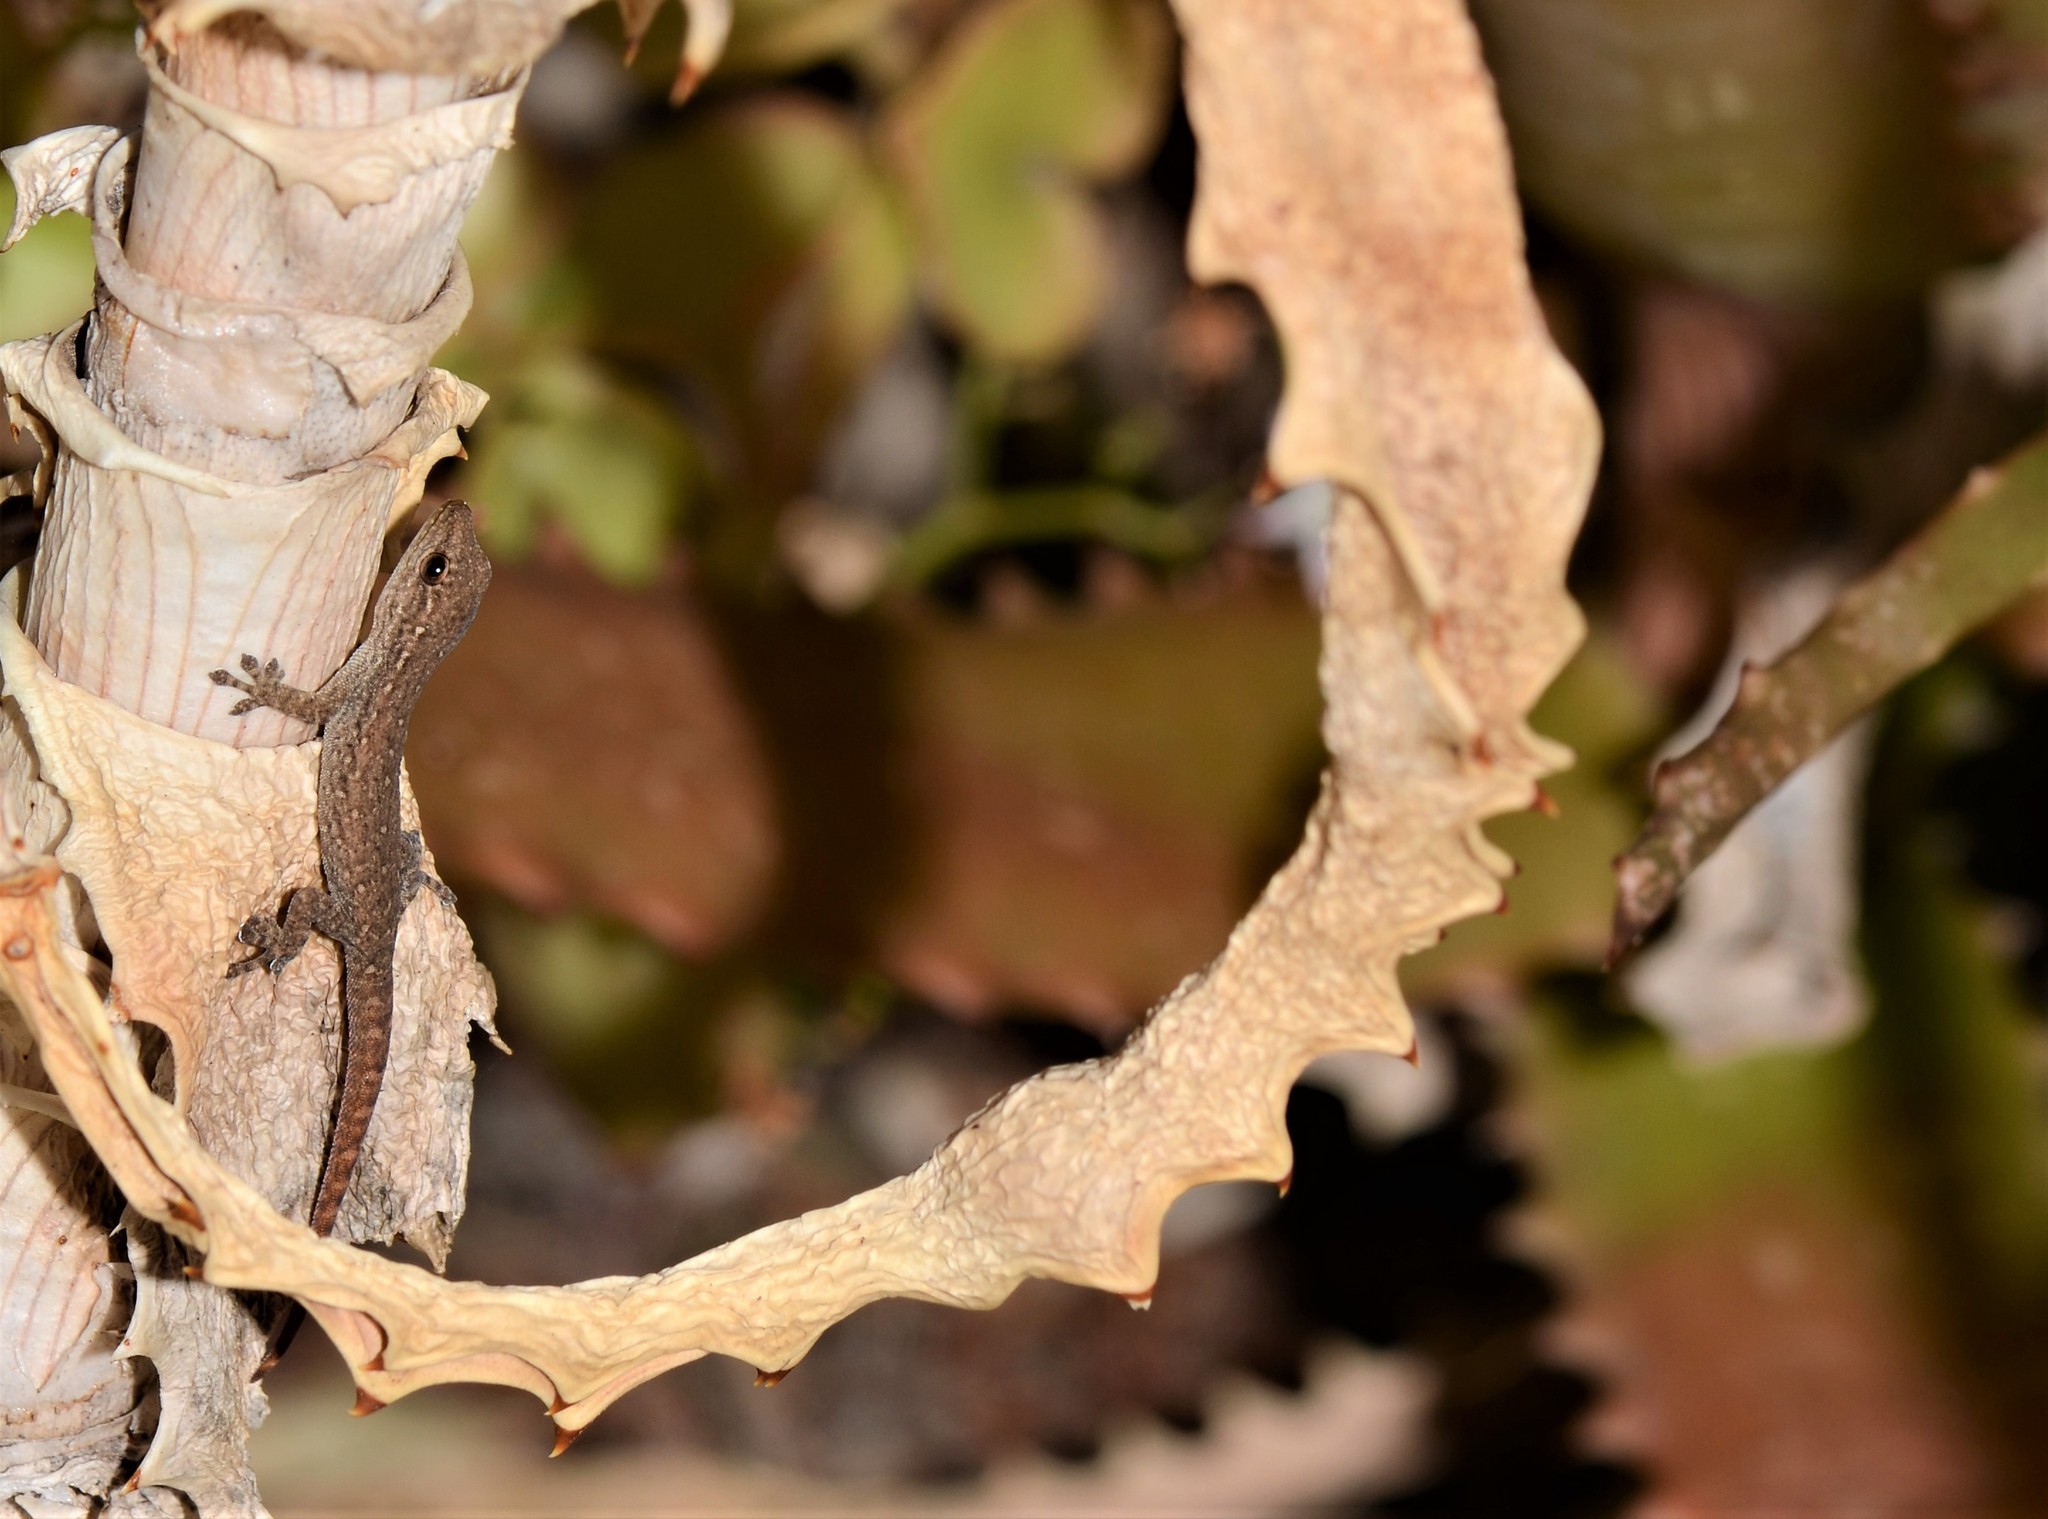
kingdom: Animalia
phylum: Chordata
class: Squamata
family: Gekkonidae
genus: Lygodactylus
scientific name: Lygodactylus capensis
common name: Cape dwarf gecko
